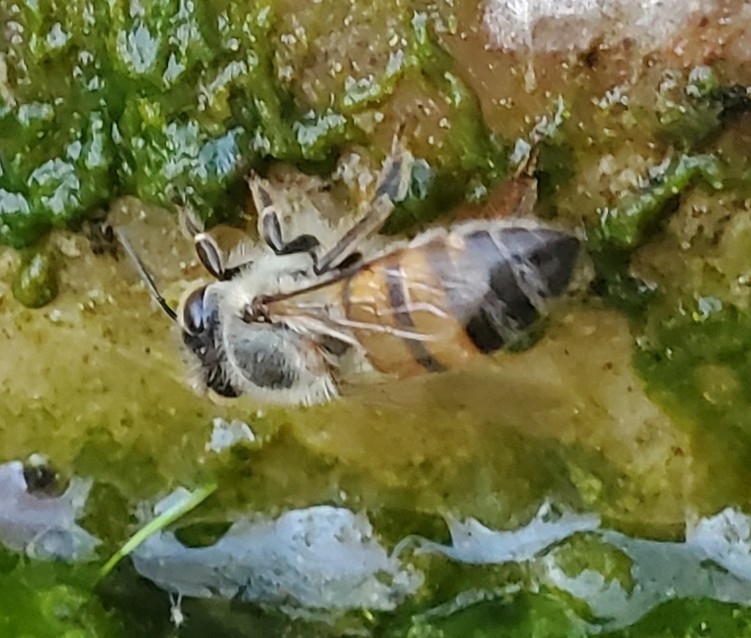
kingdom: Animalia
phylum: Arthropoda
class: Insecta
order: Hymenoptera
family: Apidae
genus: Apis
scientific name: Apis mellifera
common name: Honey bee
